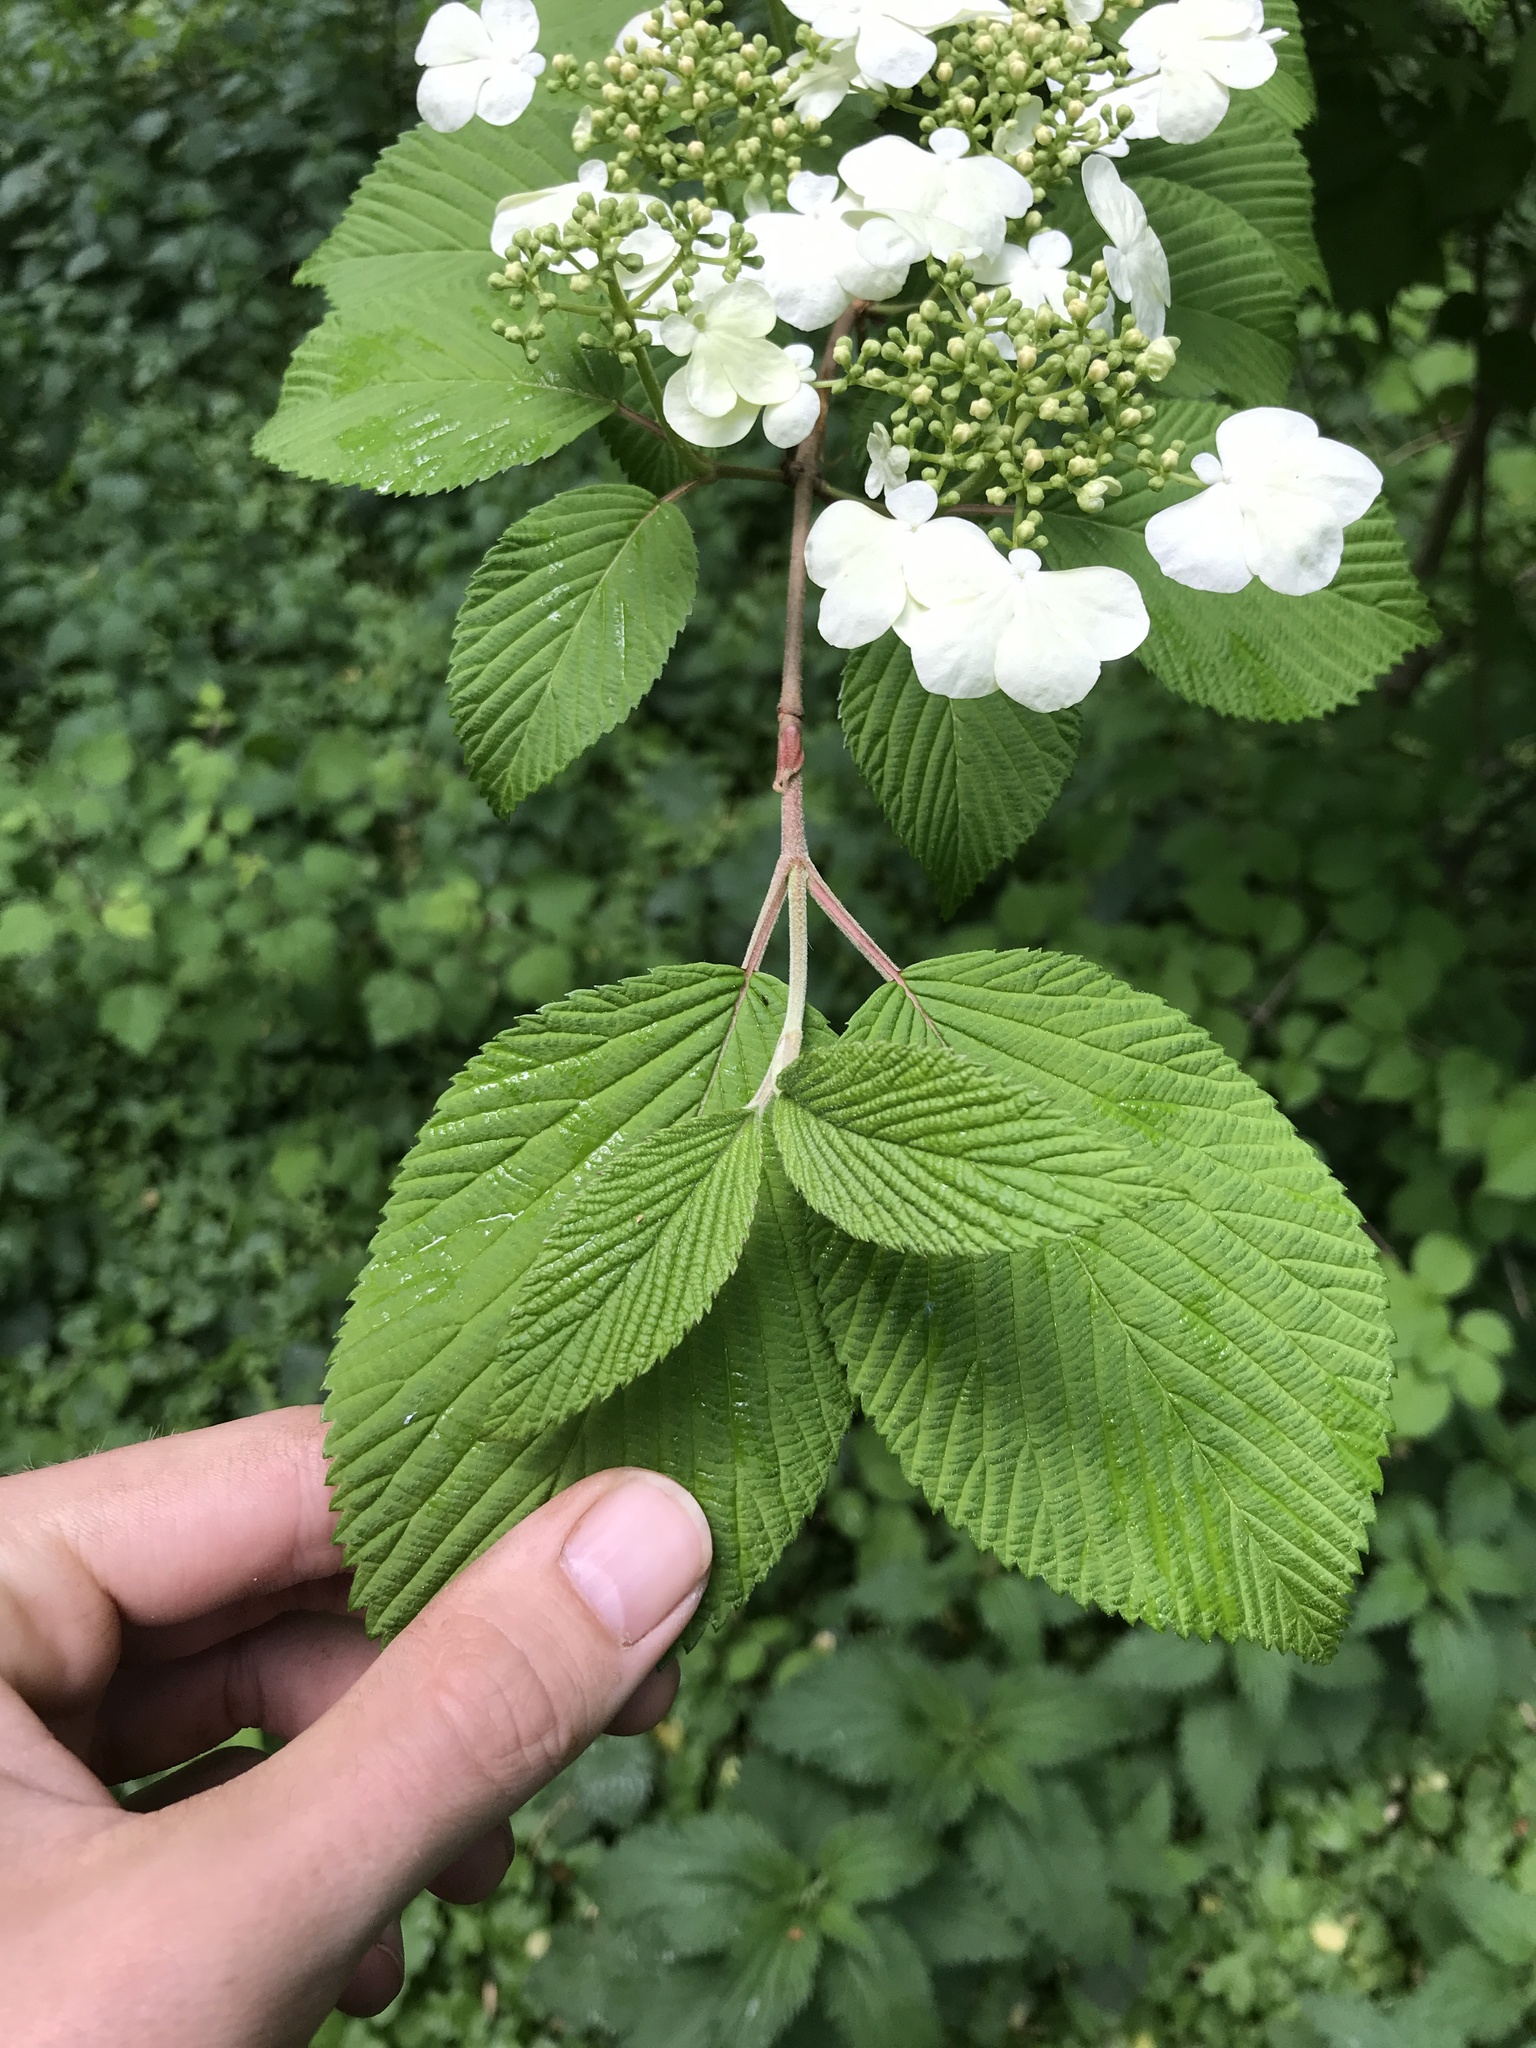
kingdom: Plantae
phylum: Tracheophyta
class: Magnoliopsida
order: Dipsacales
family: Viburnaceae
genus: Viburnum
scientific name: Viburnum plicatum
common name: Japanese snowball
